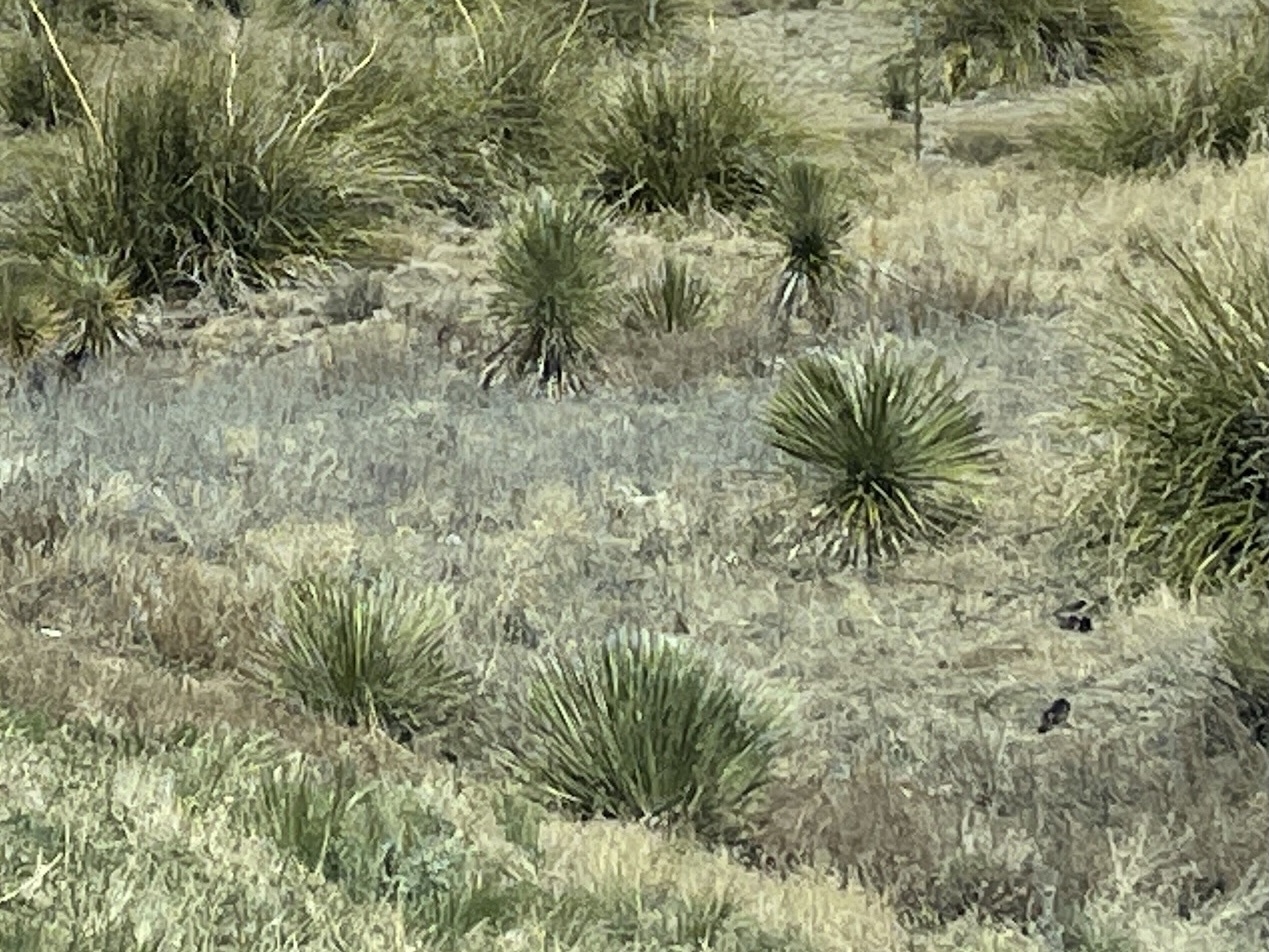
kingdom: Plantae
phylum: Tracheophyta
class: Liliopsida
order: Asparagales
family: Asparagaceae
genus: Yucca
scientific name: Yucca elata
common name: Palmella
